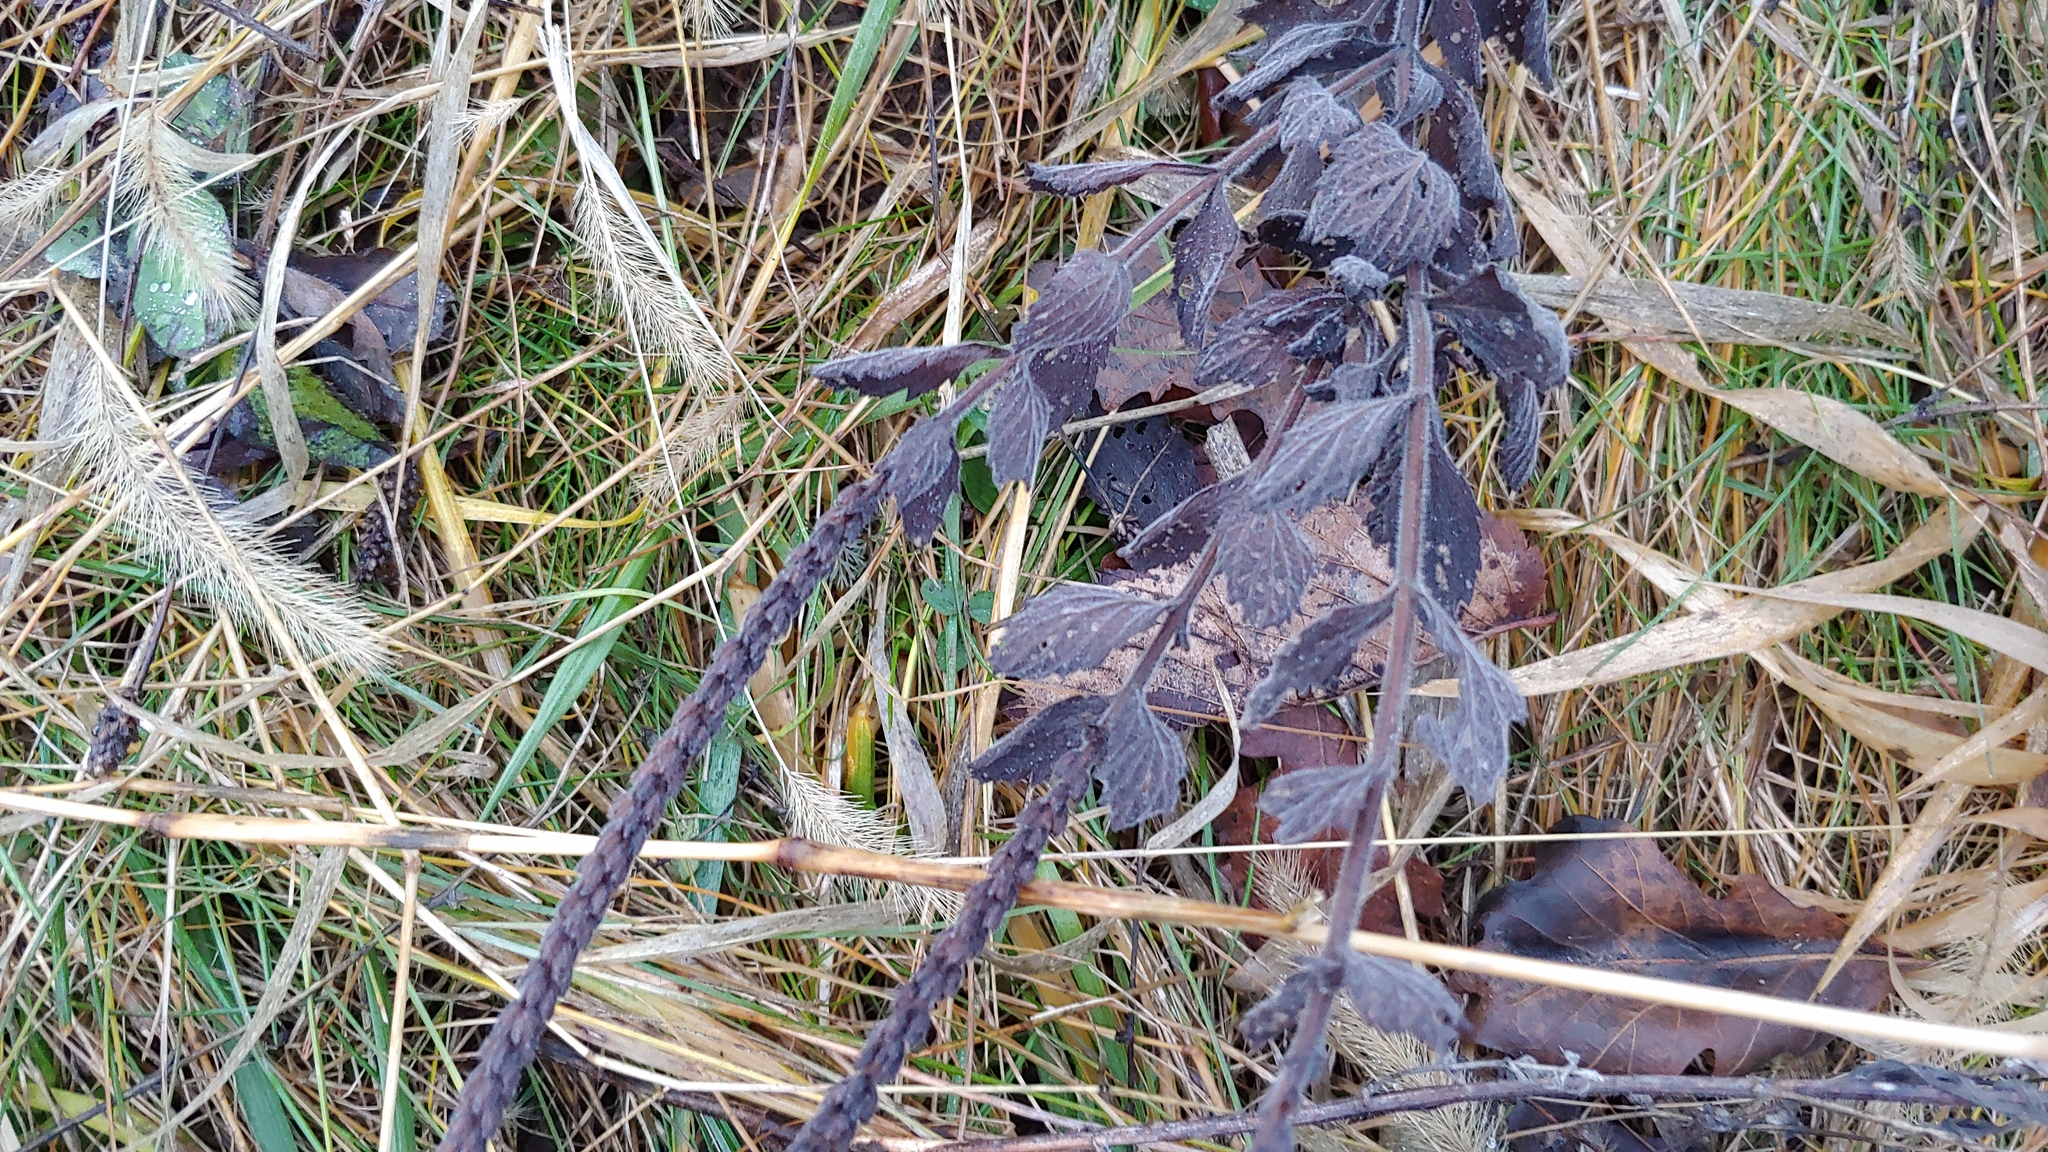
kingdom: Plantae
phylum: Tracheophyta
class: Magnoliopsida
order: Lamiales
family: Verbenaceae
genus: Verbena
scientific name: Verbena stricta
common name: Hoary vervain
